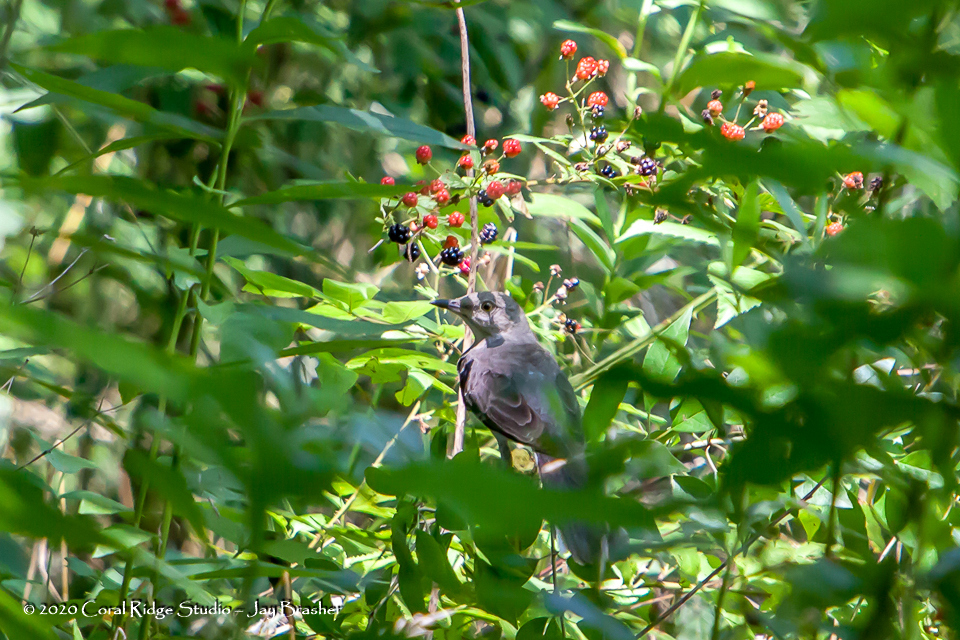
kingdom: Animalia
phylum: Chordata
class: Aves
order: Passeriformes
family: Mimidae
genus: Mimus
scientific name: Mimus polyglottos
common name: Northern mockingbird
